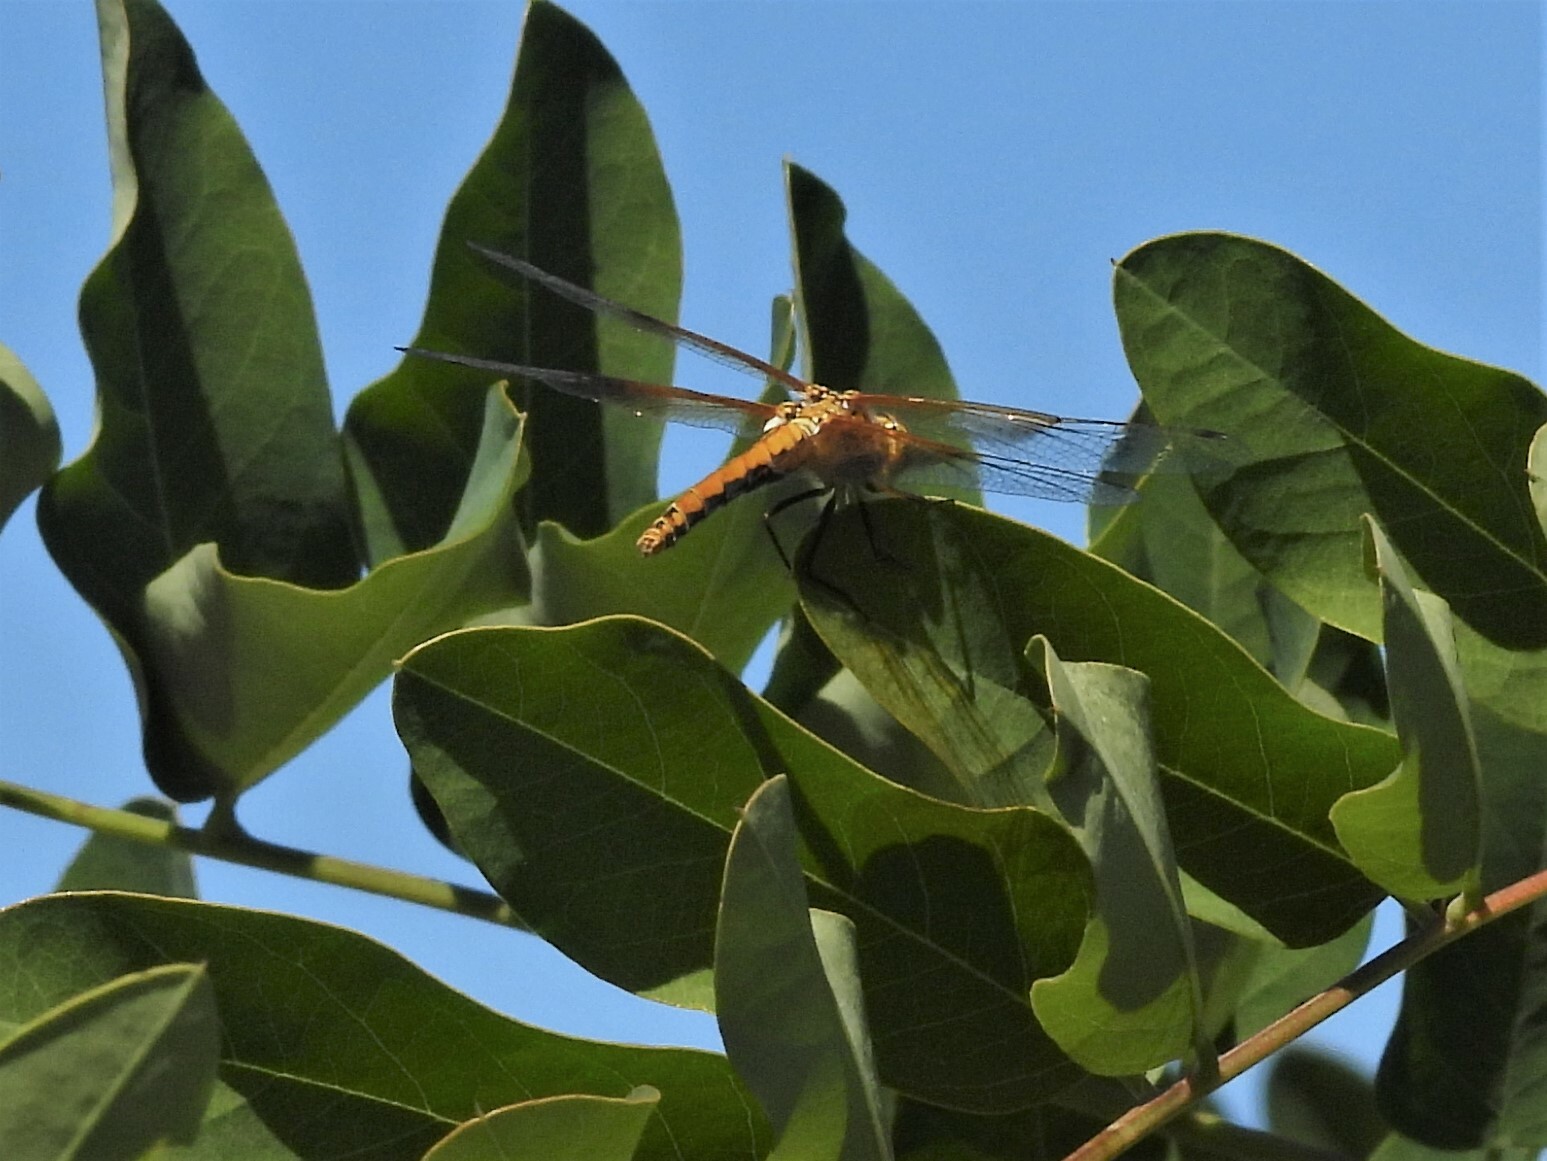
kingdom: Animalia
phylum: Arthropoda
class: Insecta
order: Odonata
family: Libellulidae
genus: Sympetrum
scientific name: Sympetrum semicinctum
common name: Band-winged meadowhawk
